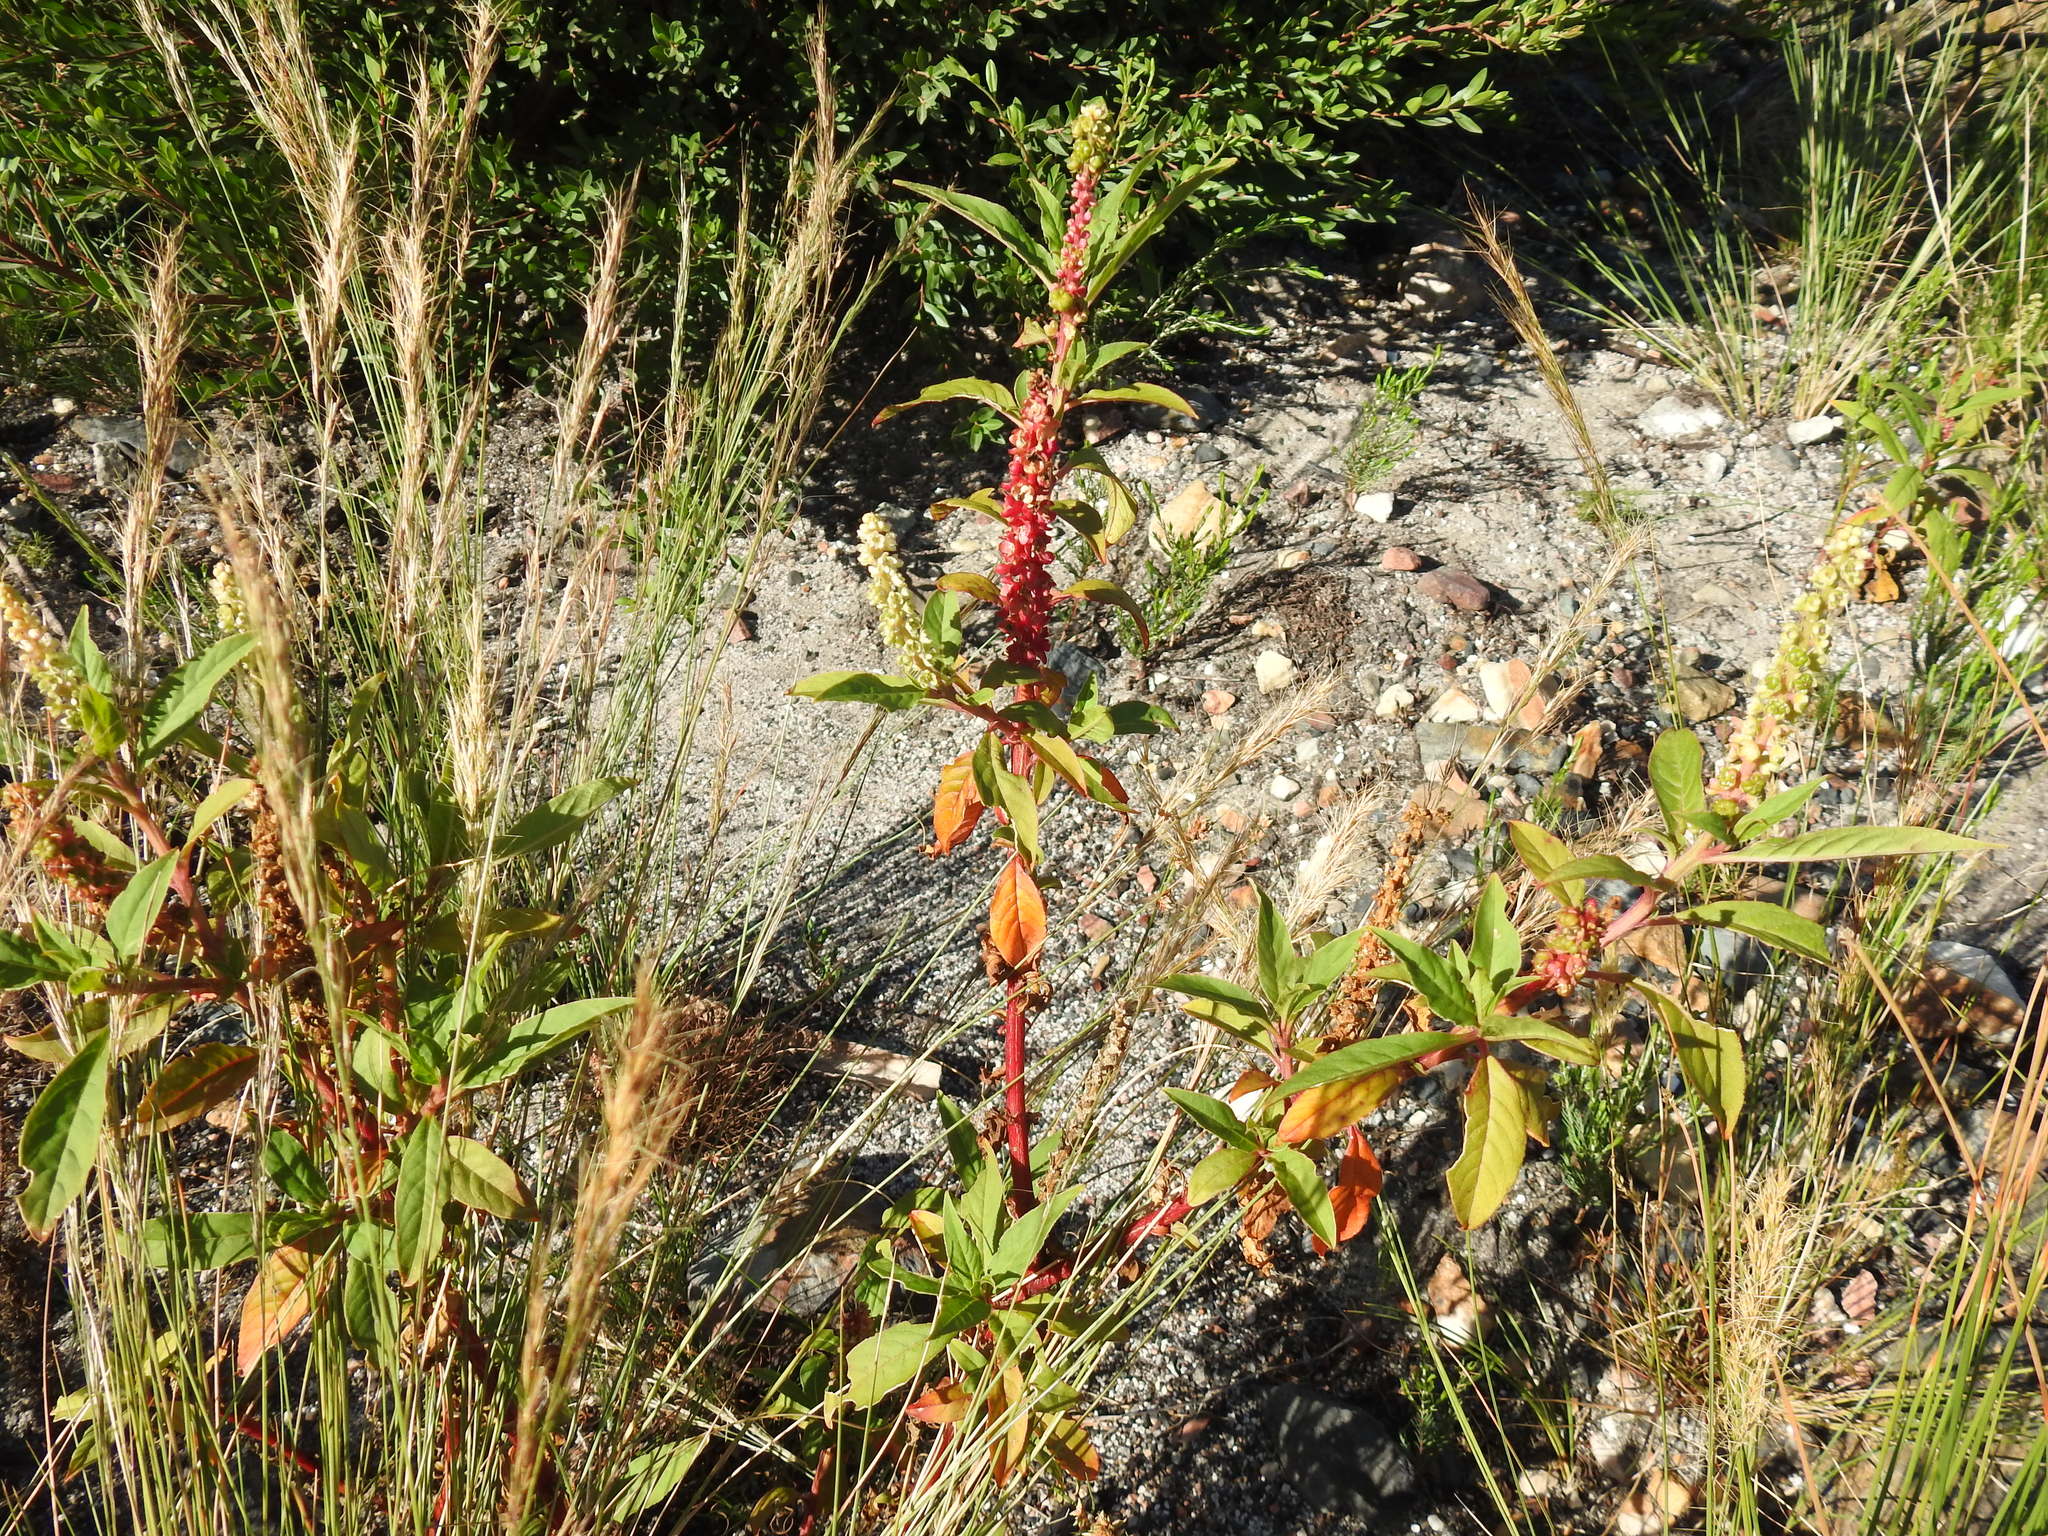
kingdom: Plantae
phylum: Tracheophyta
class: Magnoliopsida
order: Caryophyllales
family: Phytolaccaceae
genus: Phytolacca
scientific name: Phytolacca icosandra
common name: Button pokeweed
